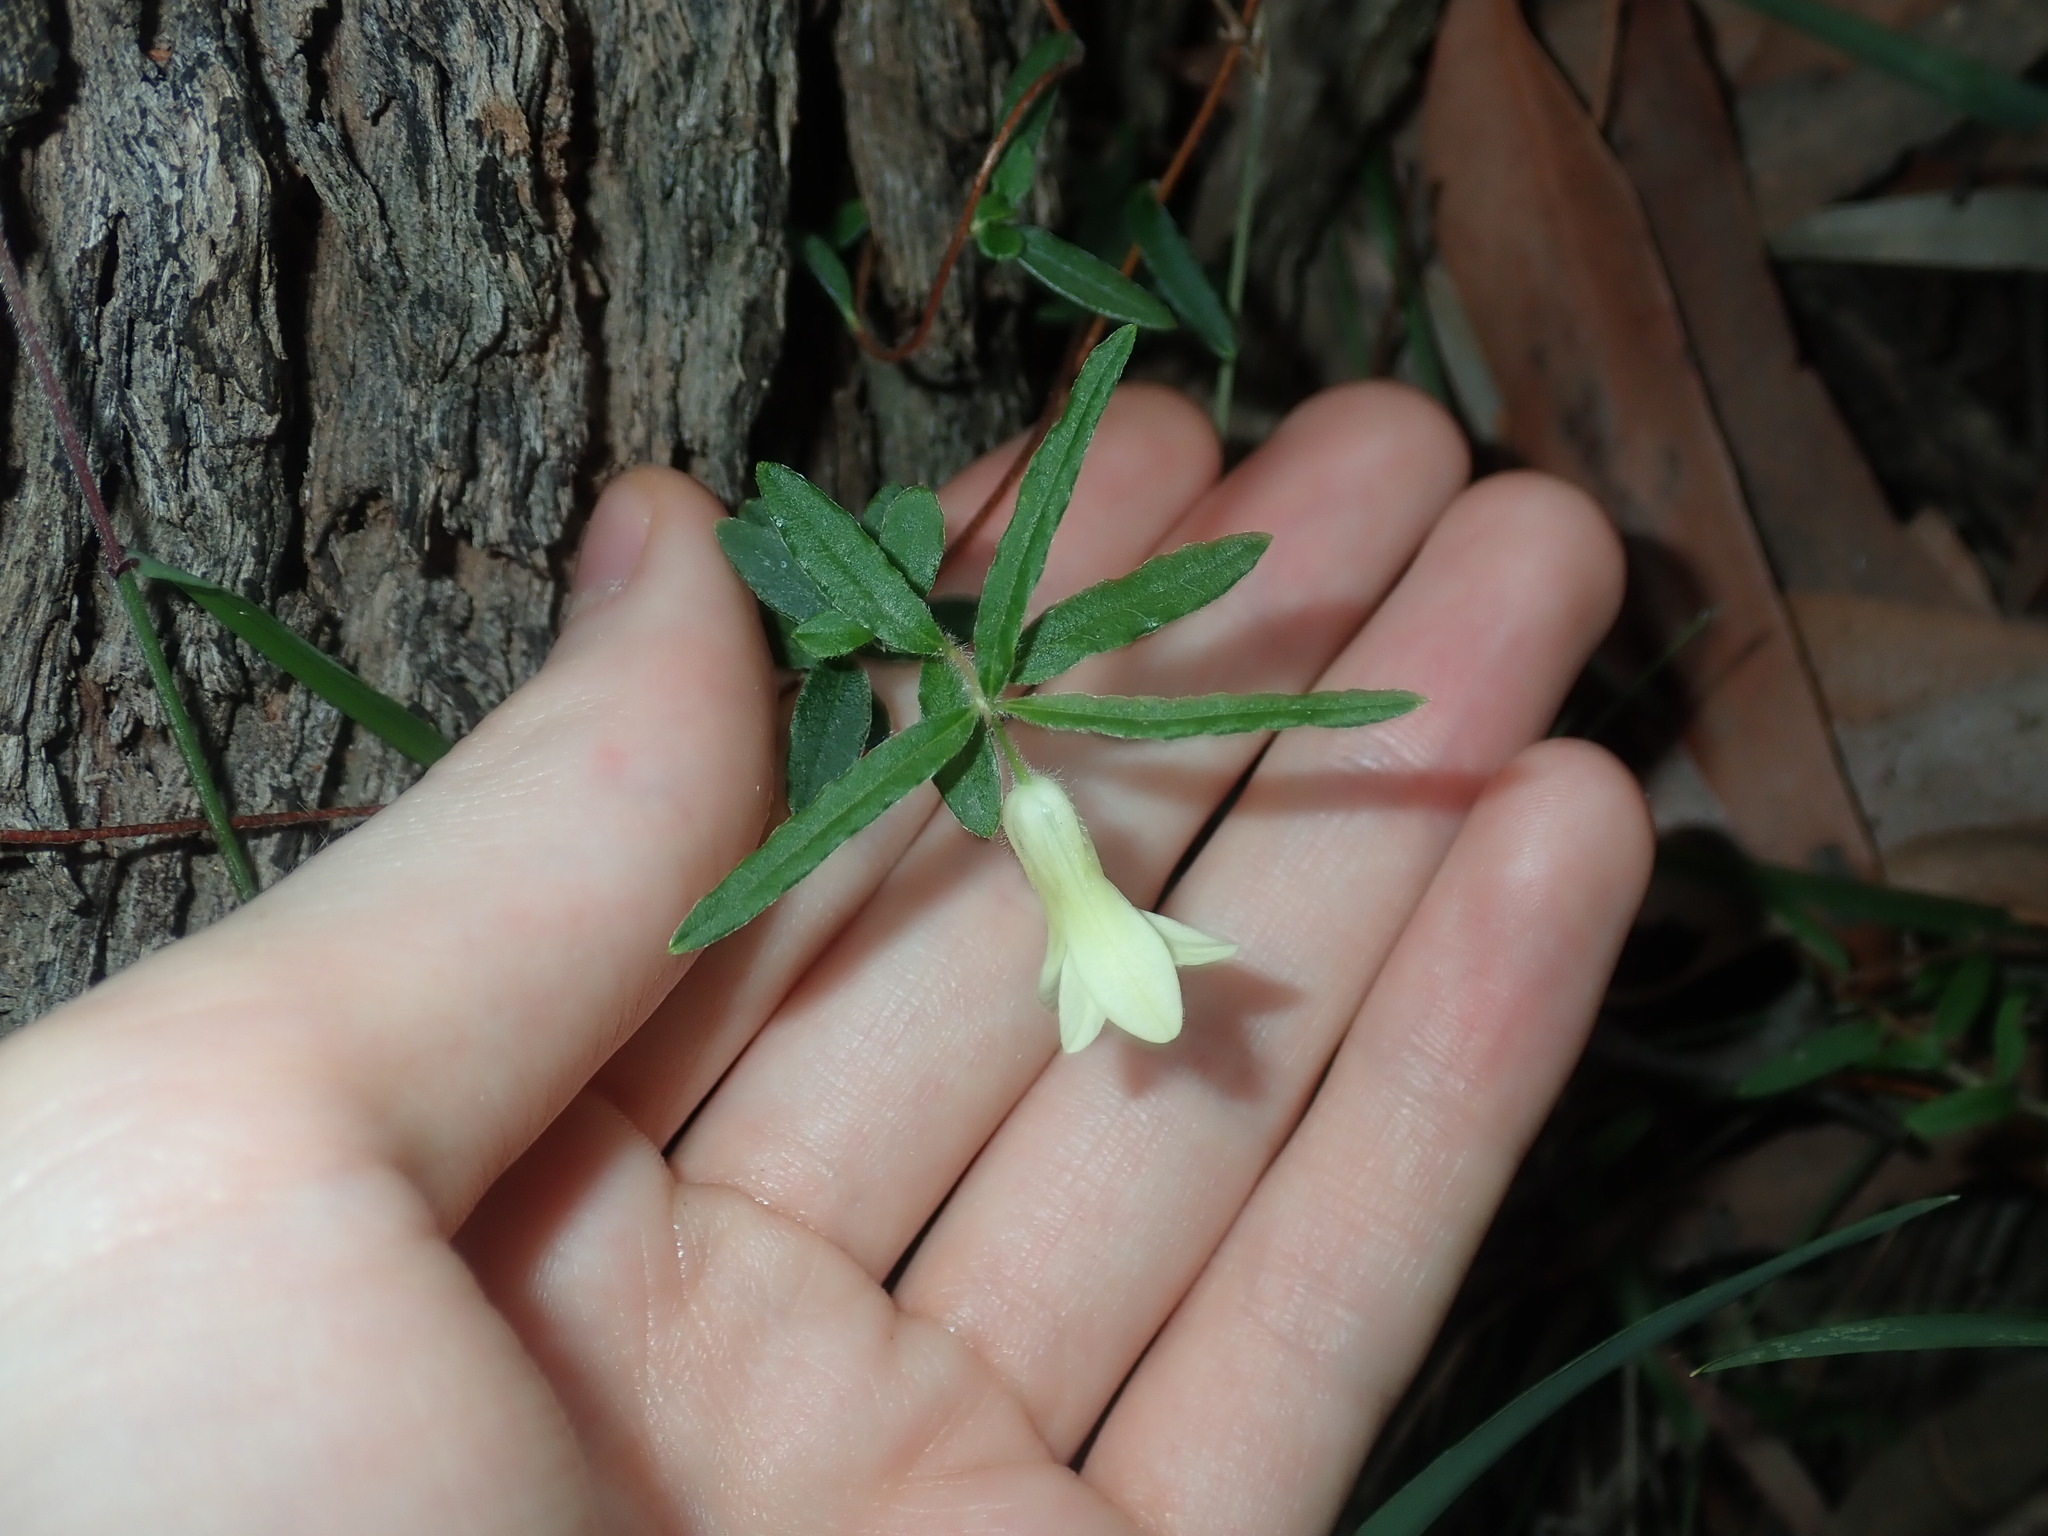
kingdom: Plantae
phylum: Tracheophyta
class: Magnoliopsida
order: Apiales
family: Pittosporaceae
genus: Billardiera
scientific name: Billardiera scandens
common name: Apple-berry
